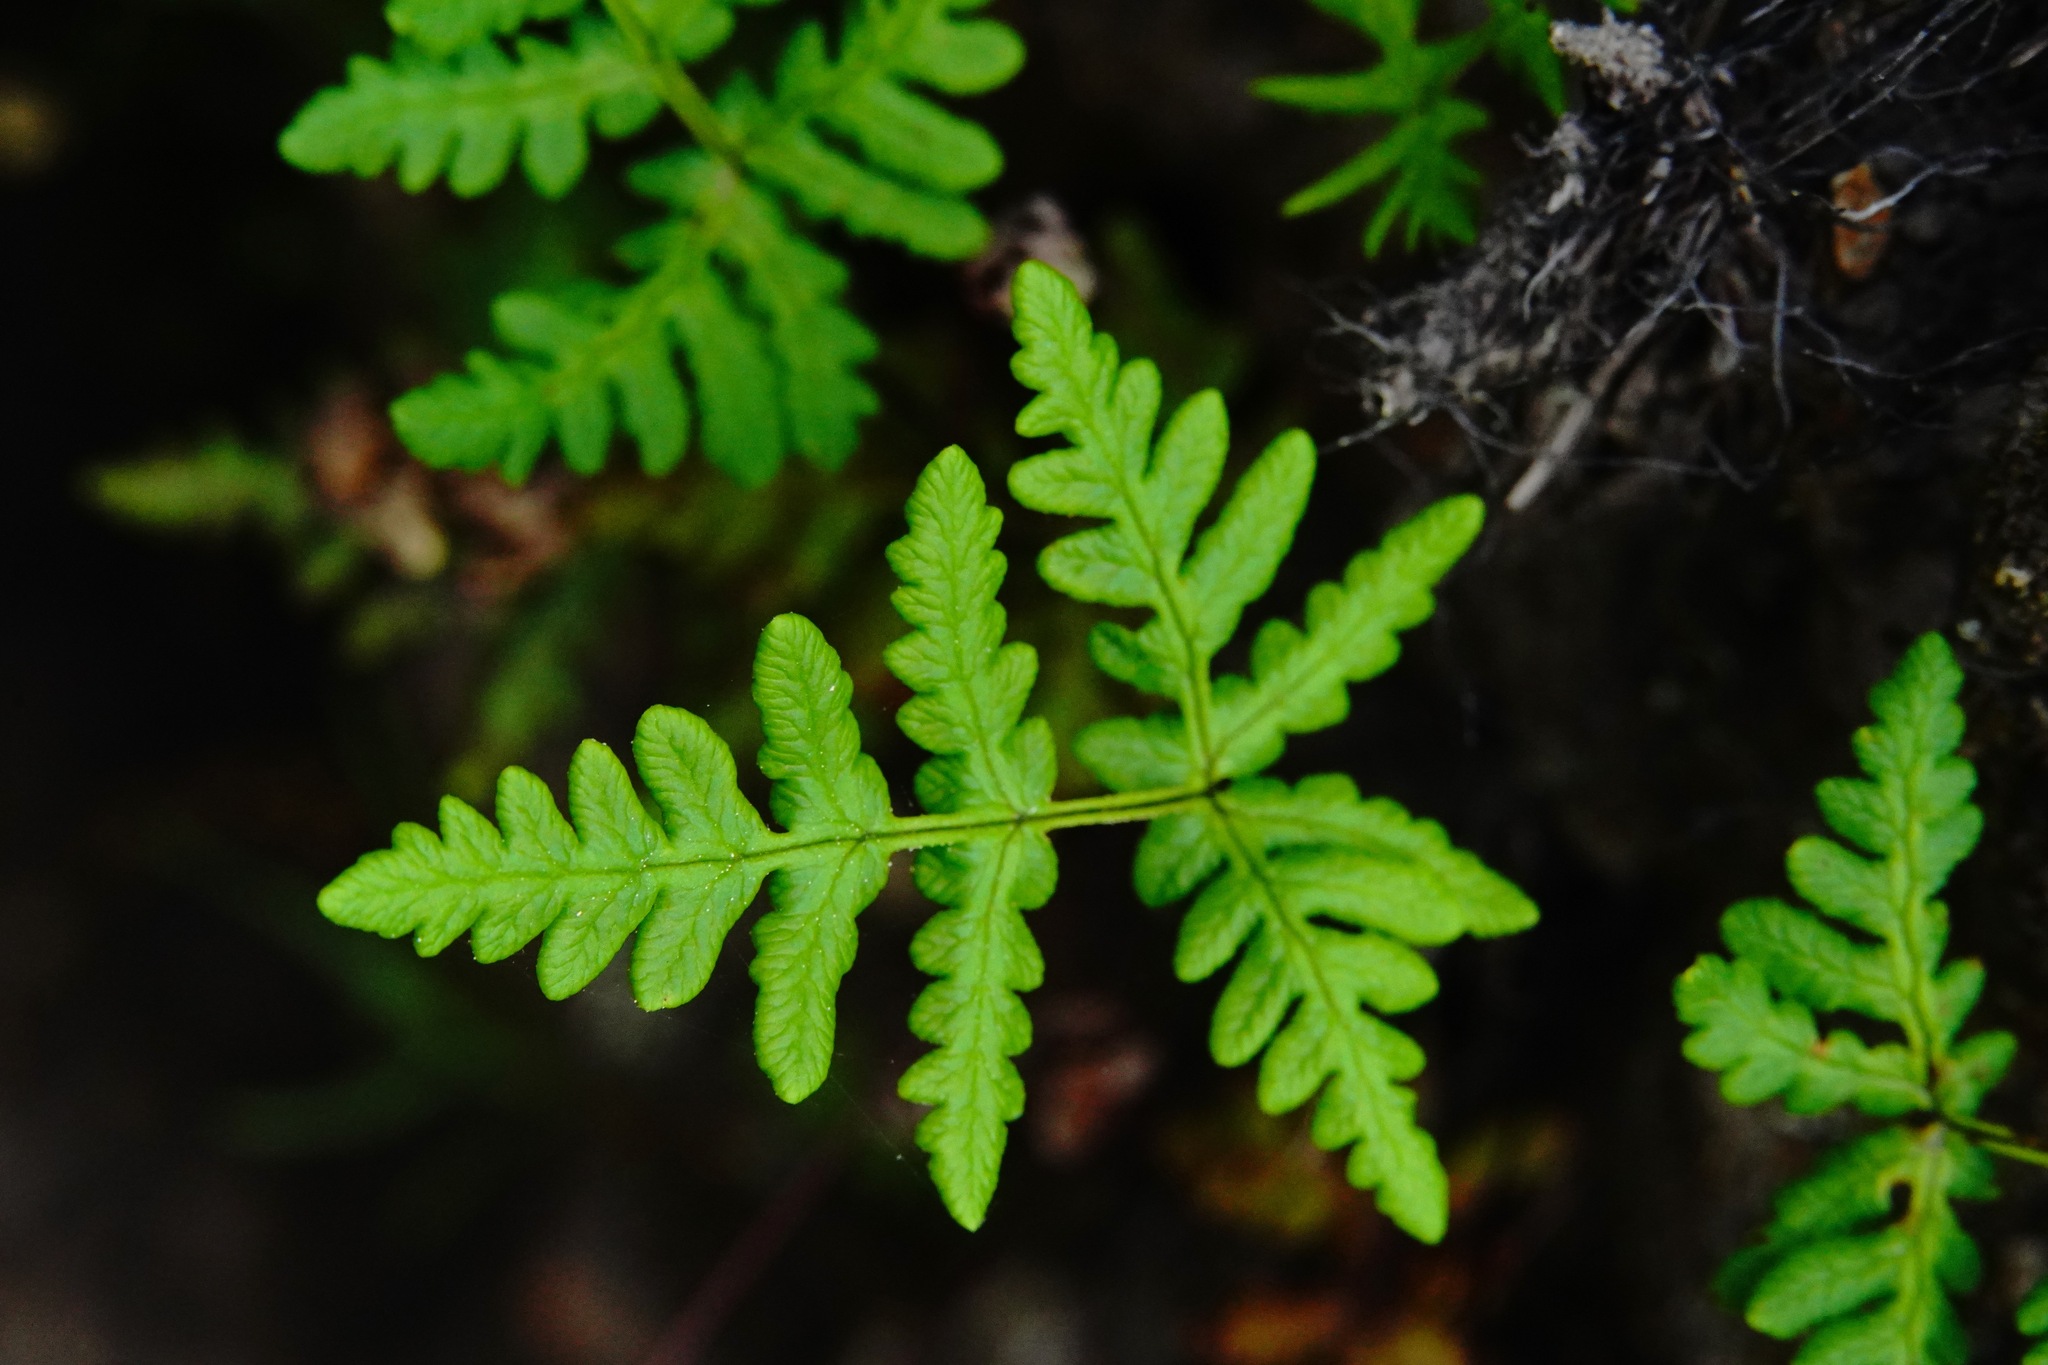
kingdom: Plantae
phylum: Tracheophyta
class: Polypodiopsida
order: Polypodiales
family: Pteridaceae
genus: Pentagramma
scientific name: Pentagramma triangularis
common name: Gold fern
